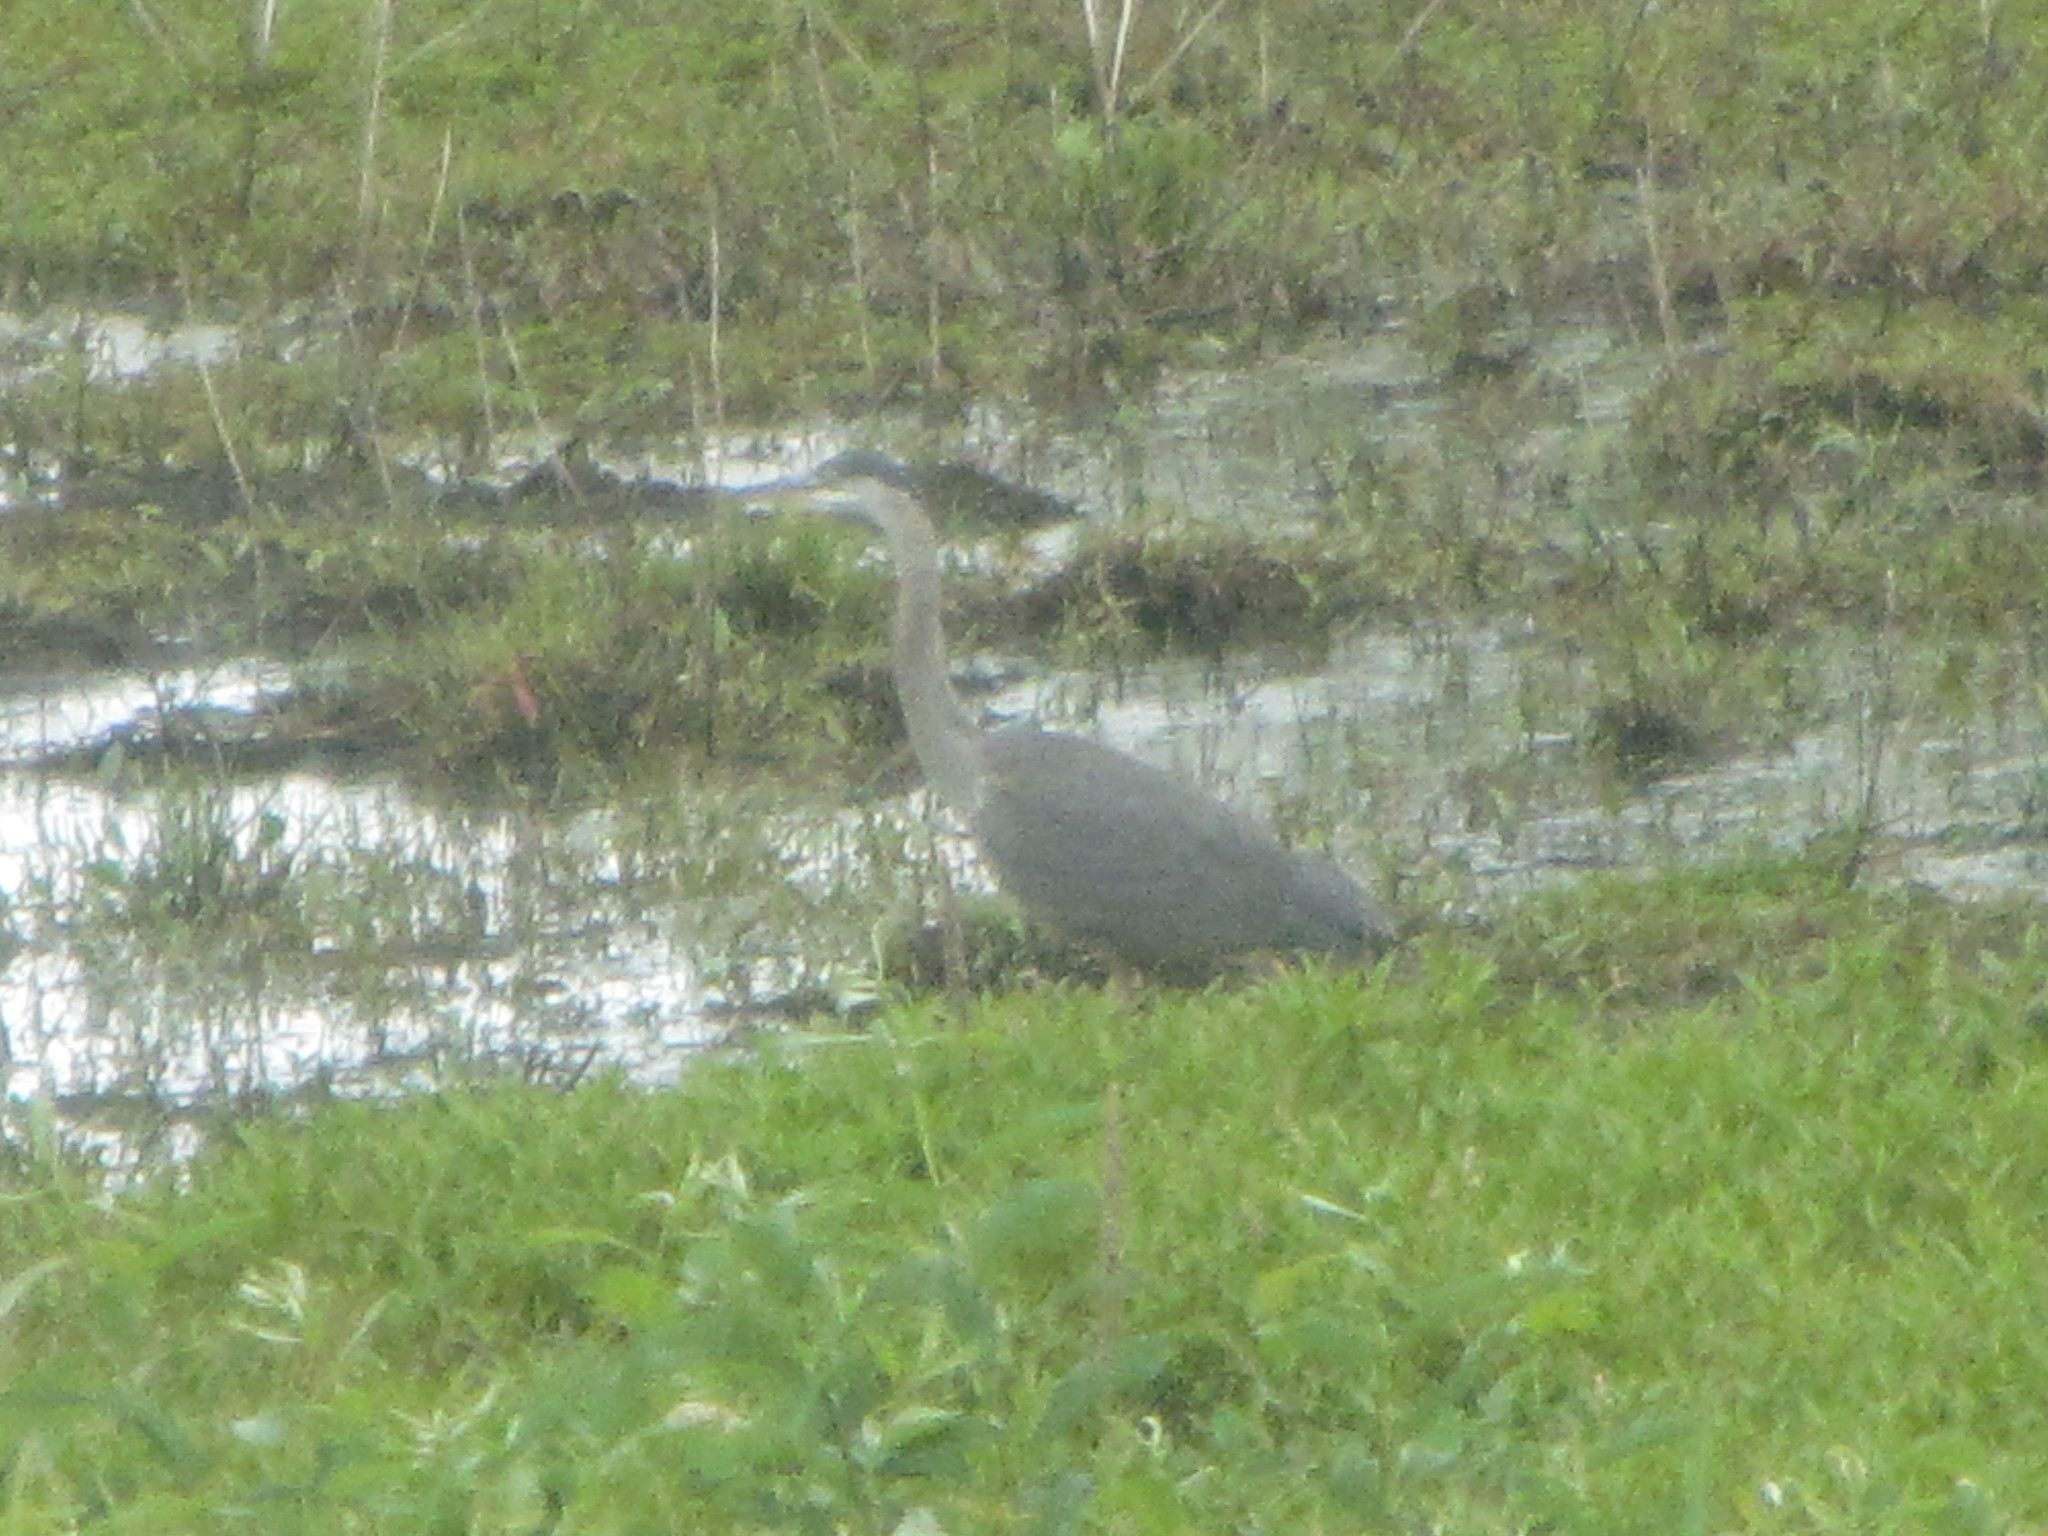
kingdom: Animalia
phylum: Chordata
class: Aves
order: Pelecaniformes
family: Ardeidae
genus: Ardea
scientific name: Ardea herodias
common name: Great blue heron
